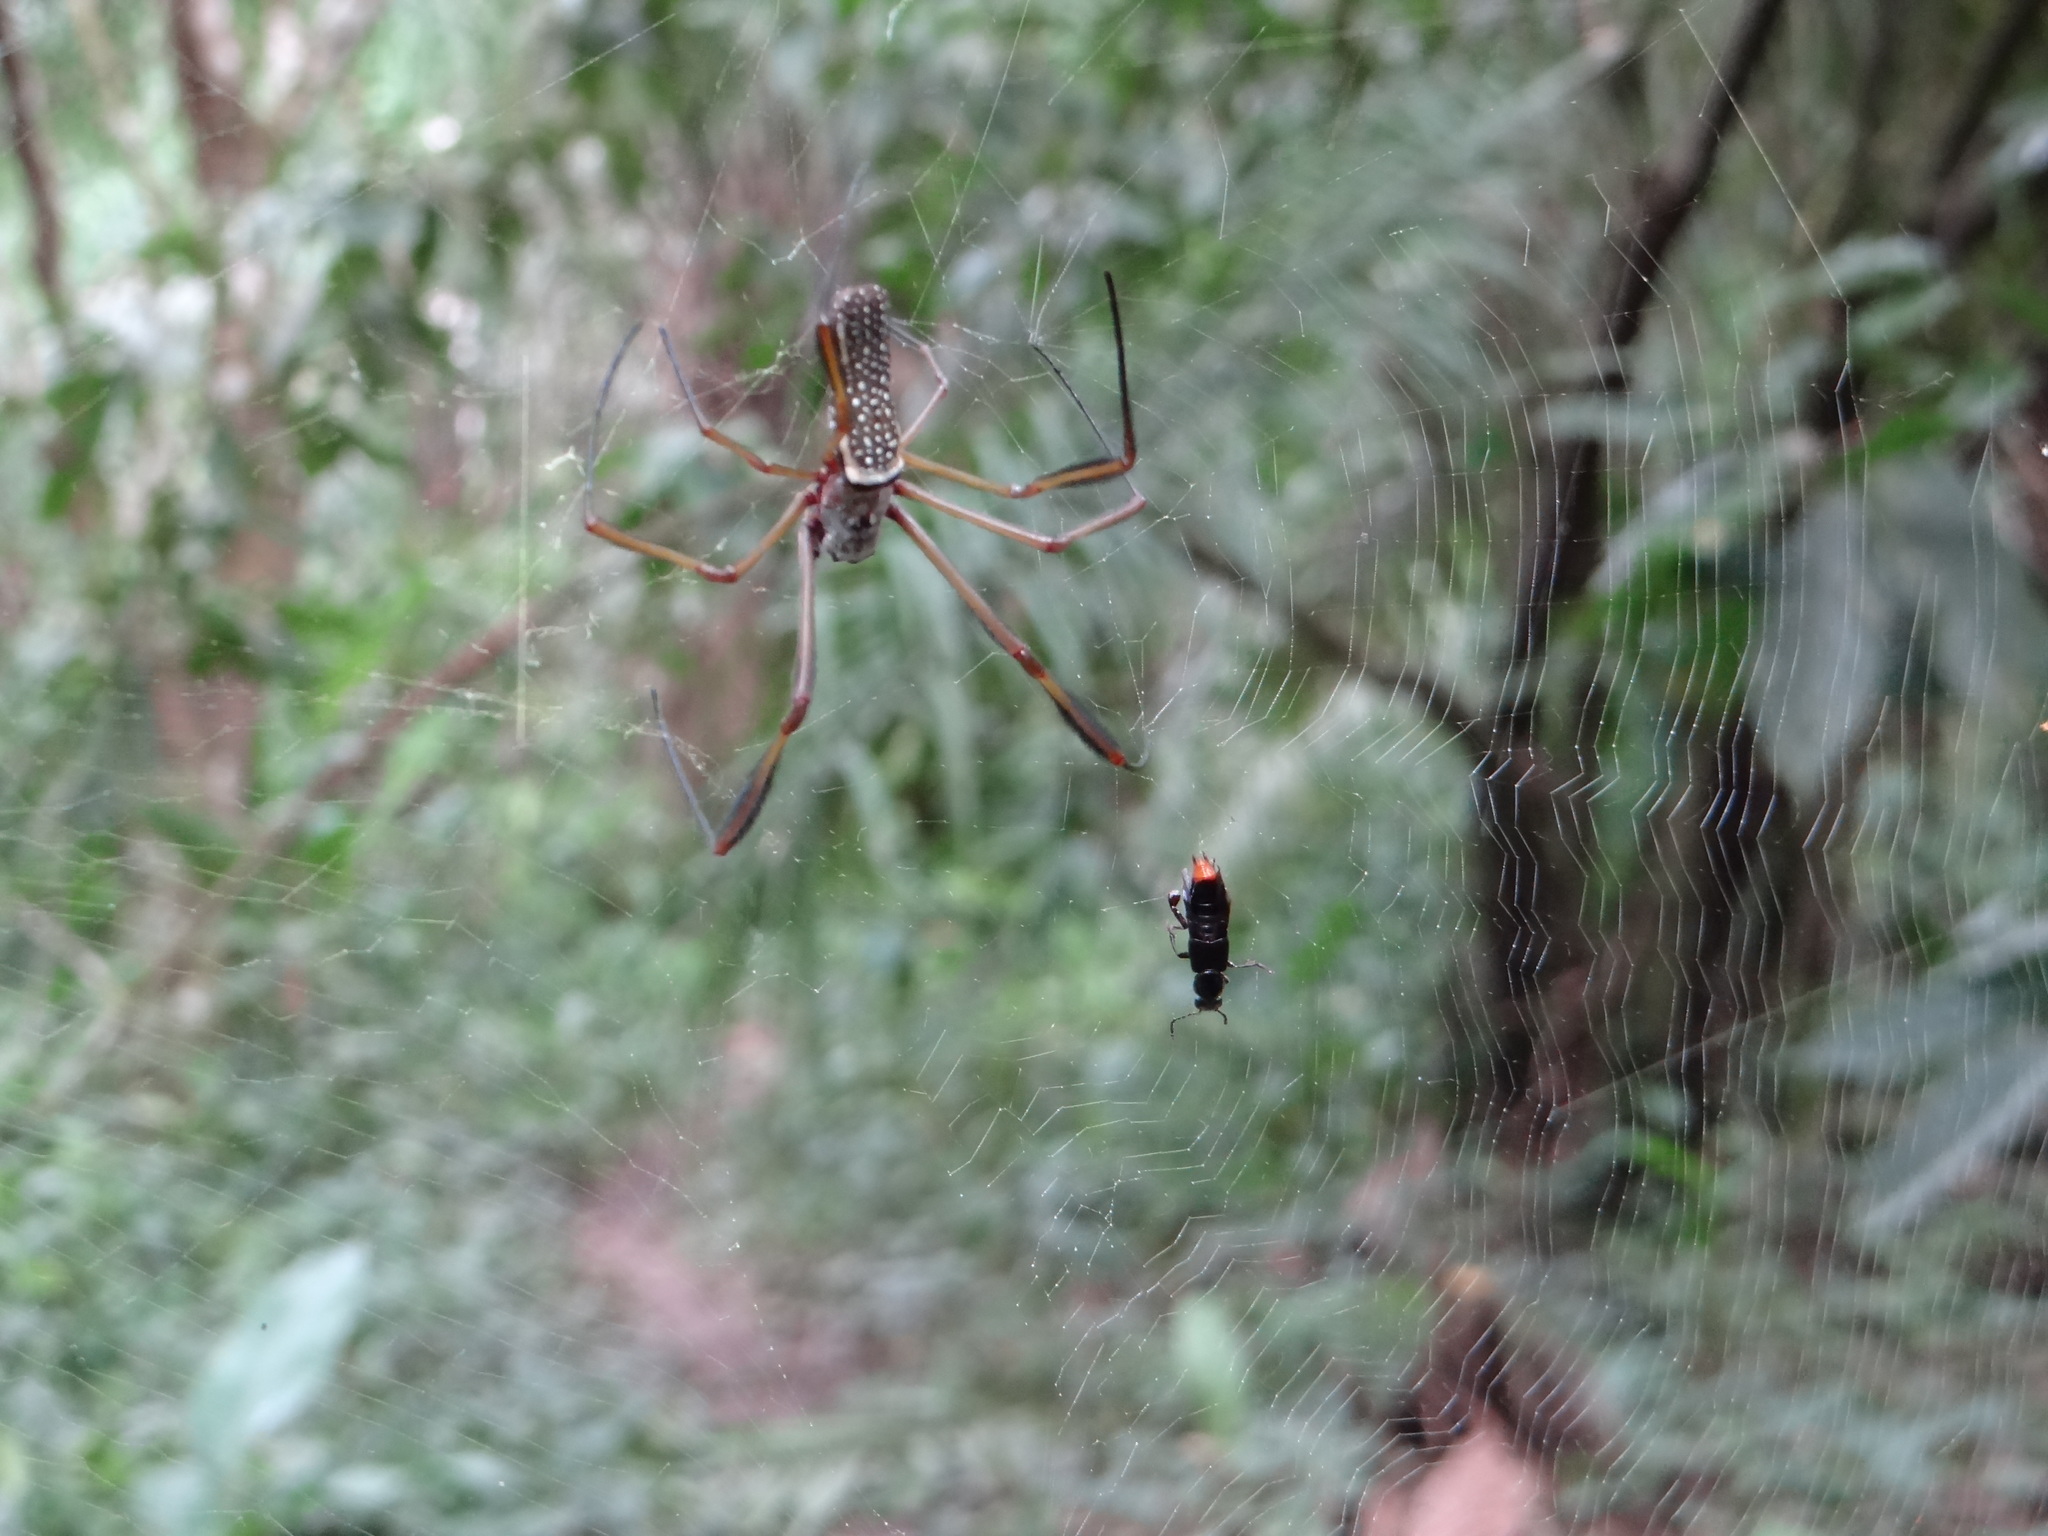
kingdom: Animalia
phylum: Arthropoda
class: Arachnida
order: Araneae
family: Araneidae
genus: Trichonephila
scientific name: Trichonephila clavipes
